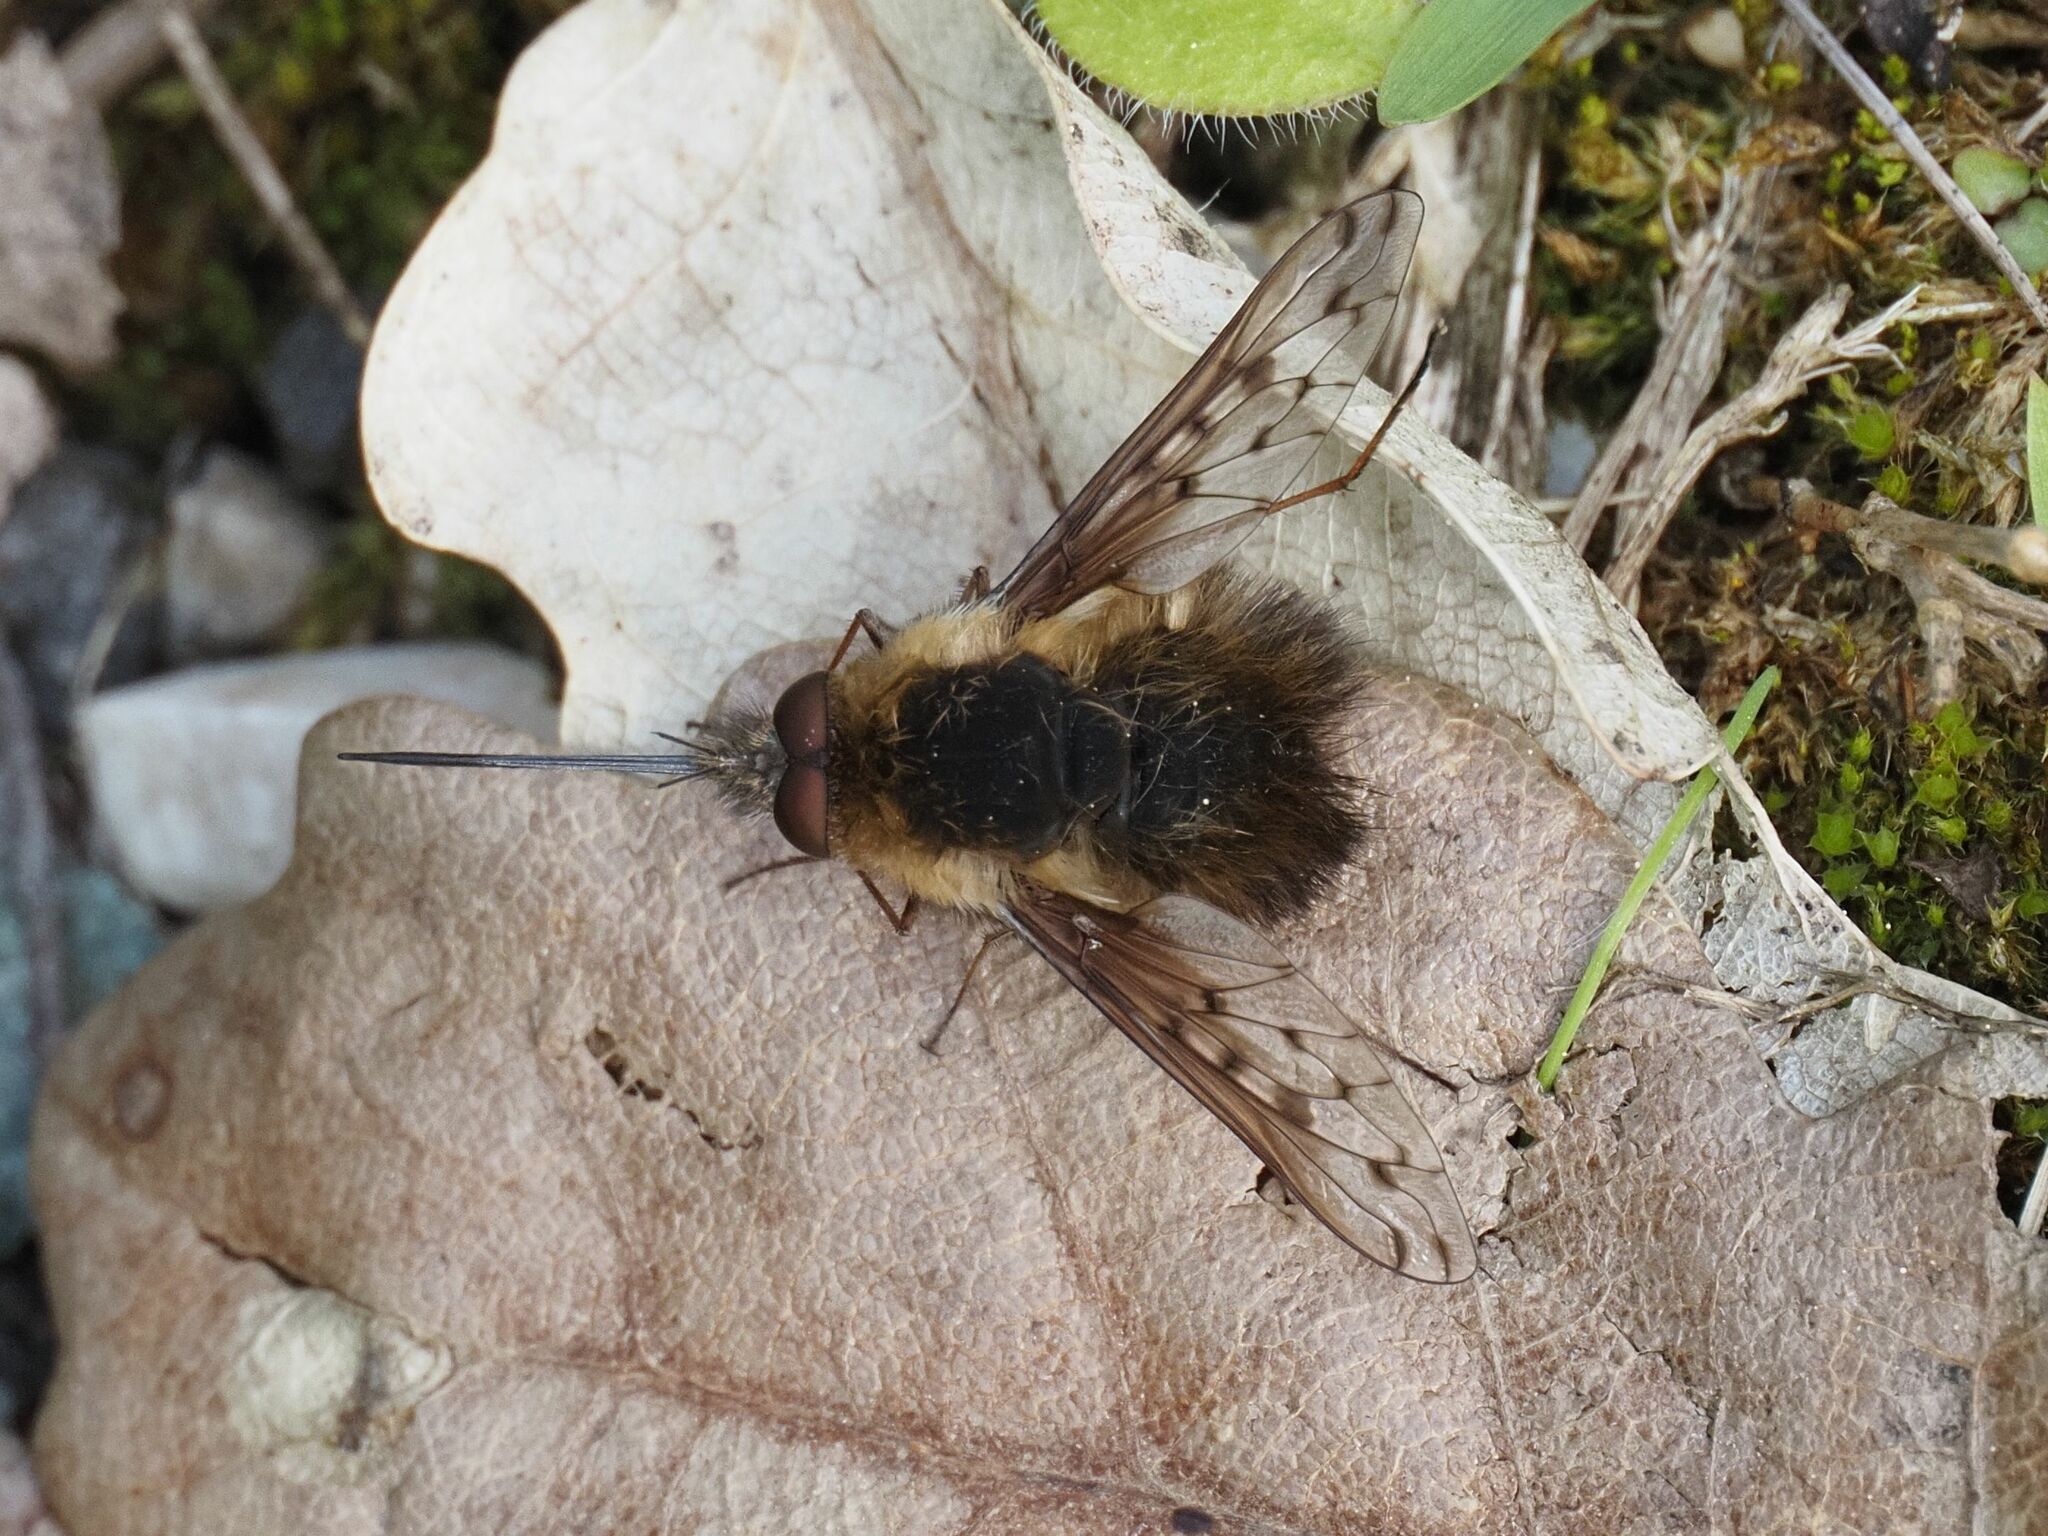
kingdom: Animalia
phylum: Arthropoda
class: Insecta
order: Diptera
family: Bombyliidae
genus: Bombylius
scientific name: Bombylius discolor
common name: Dotted bee-fly
